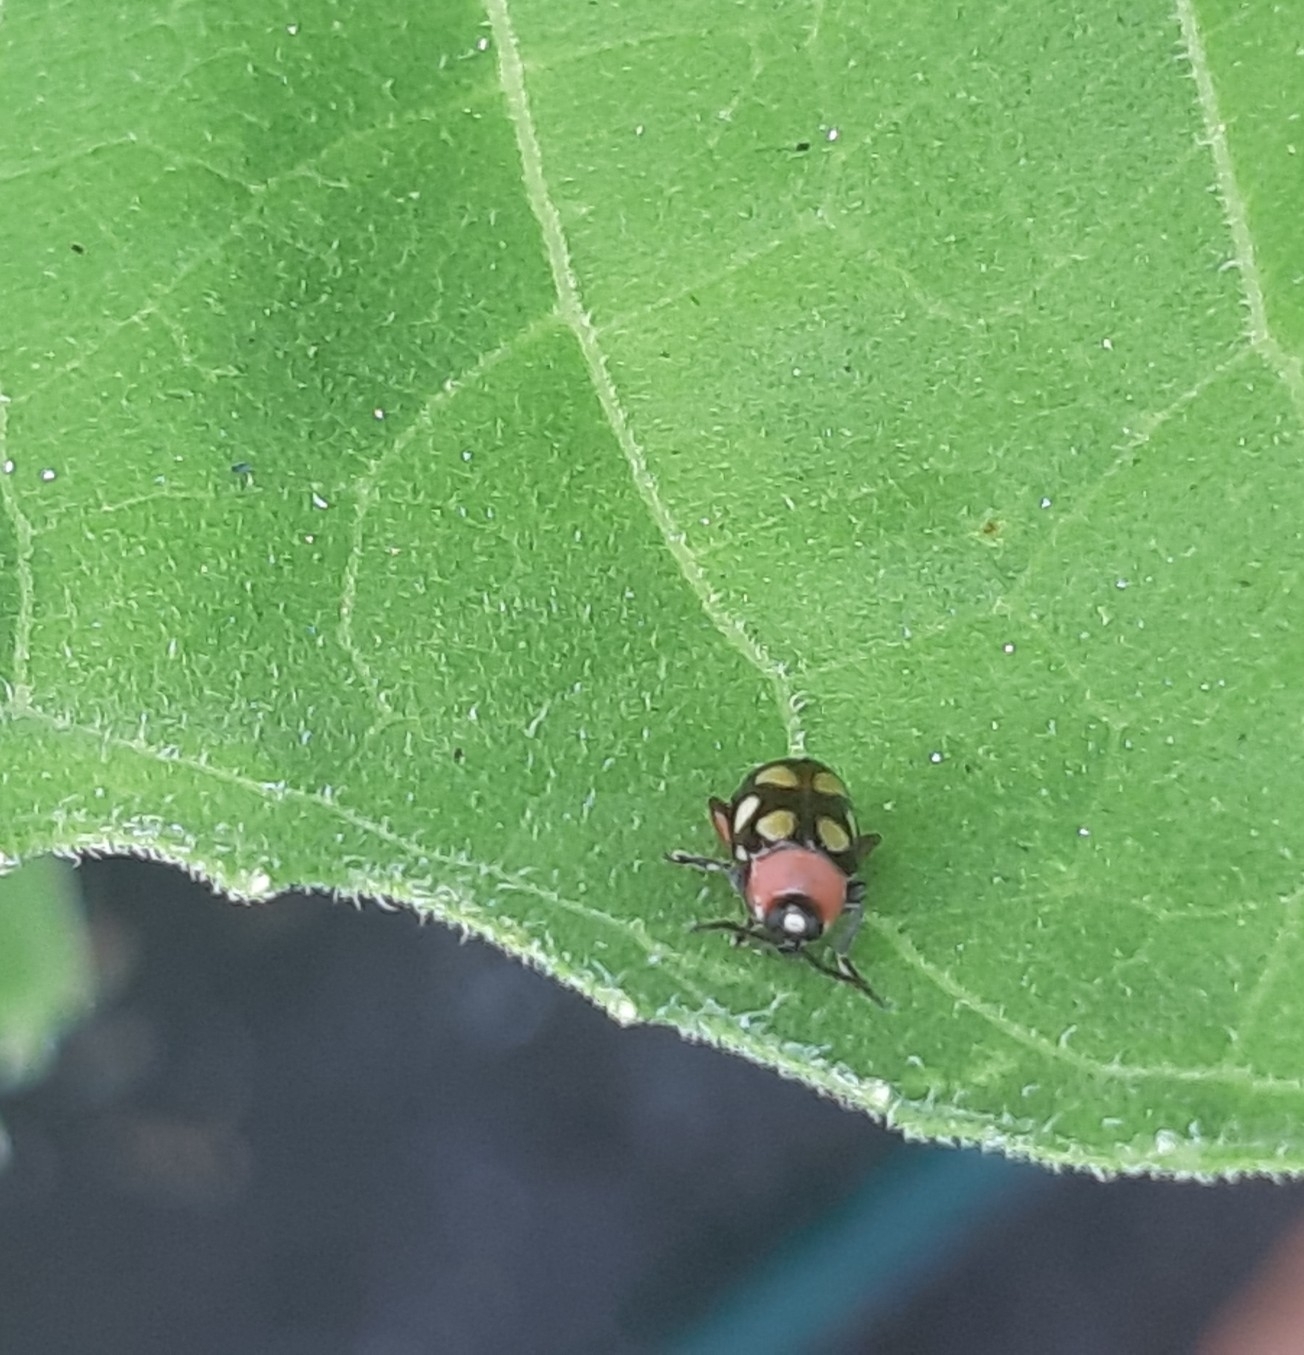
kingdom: Animalia
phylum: Arthropoda
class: Insecta
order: Coleoptera
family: Chrysomelidae
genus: Omophoita
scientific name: Omophoita cyanipennis
